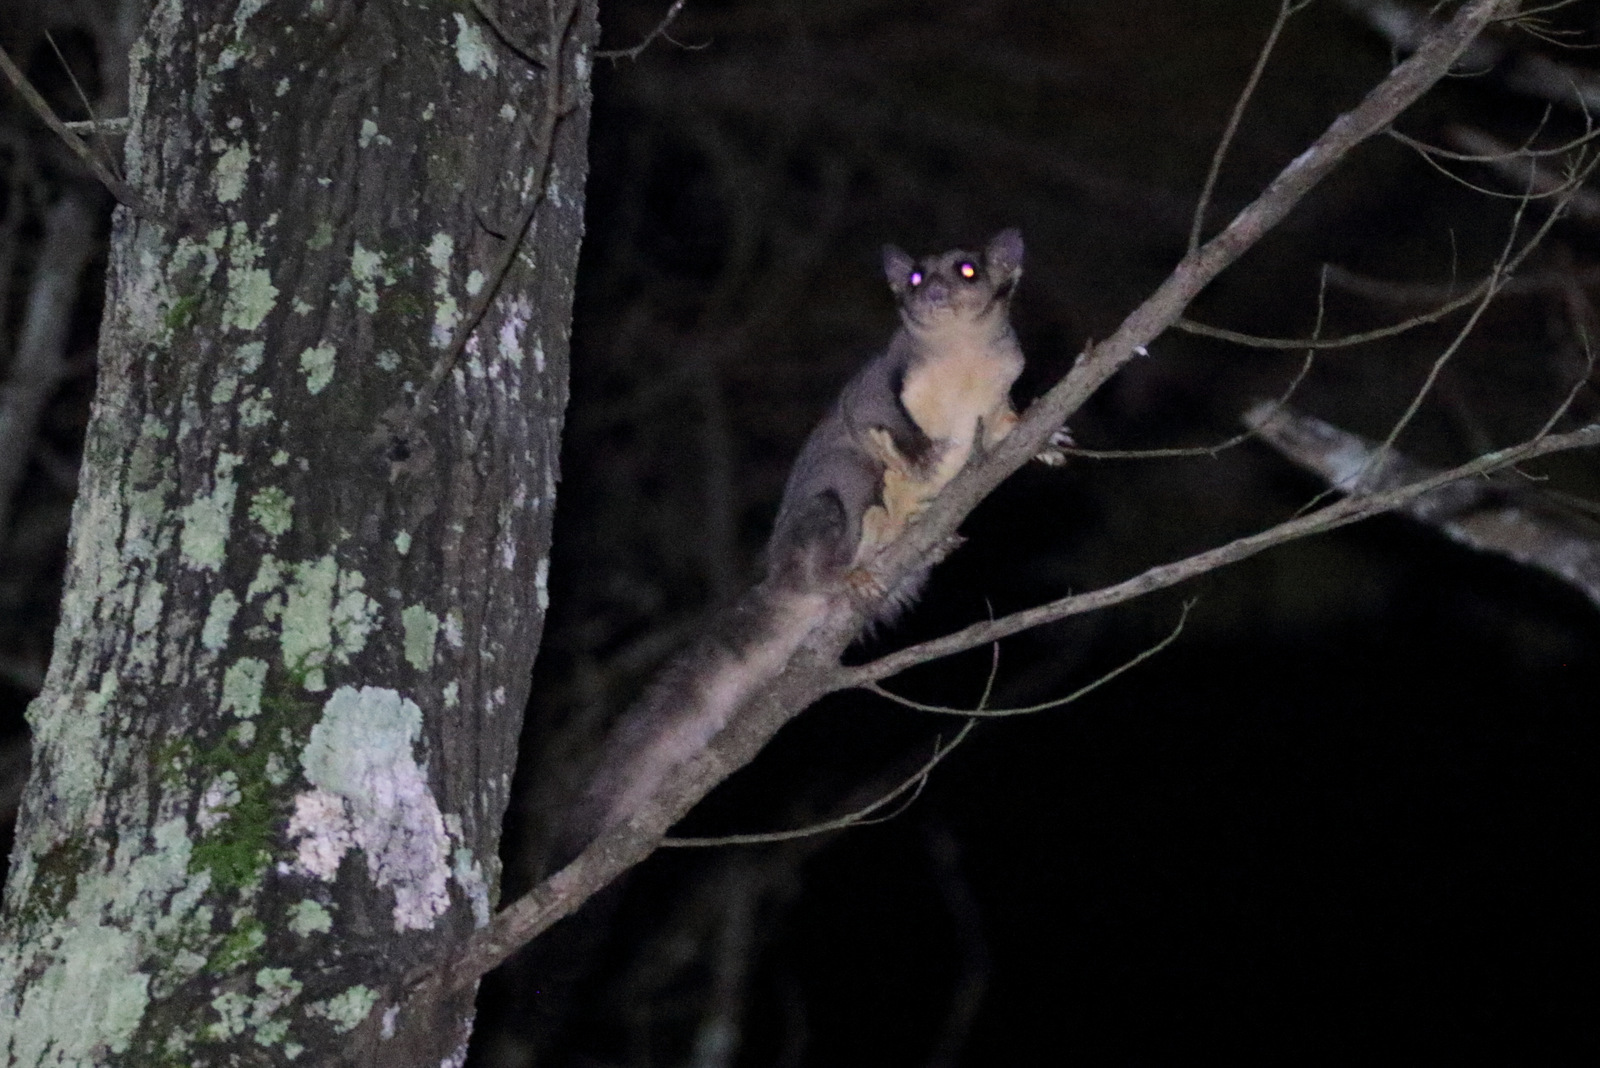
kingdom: Animalia
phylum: Chordata
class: Mammalia
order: Diprotodontia
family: Petauridae
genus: Petaurus
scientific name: Petaurus norfolcensis
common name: Squirrel glider
